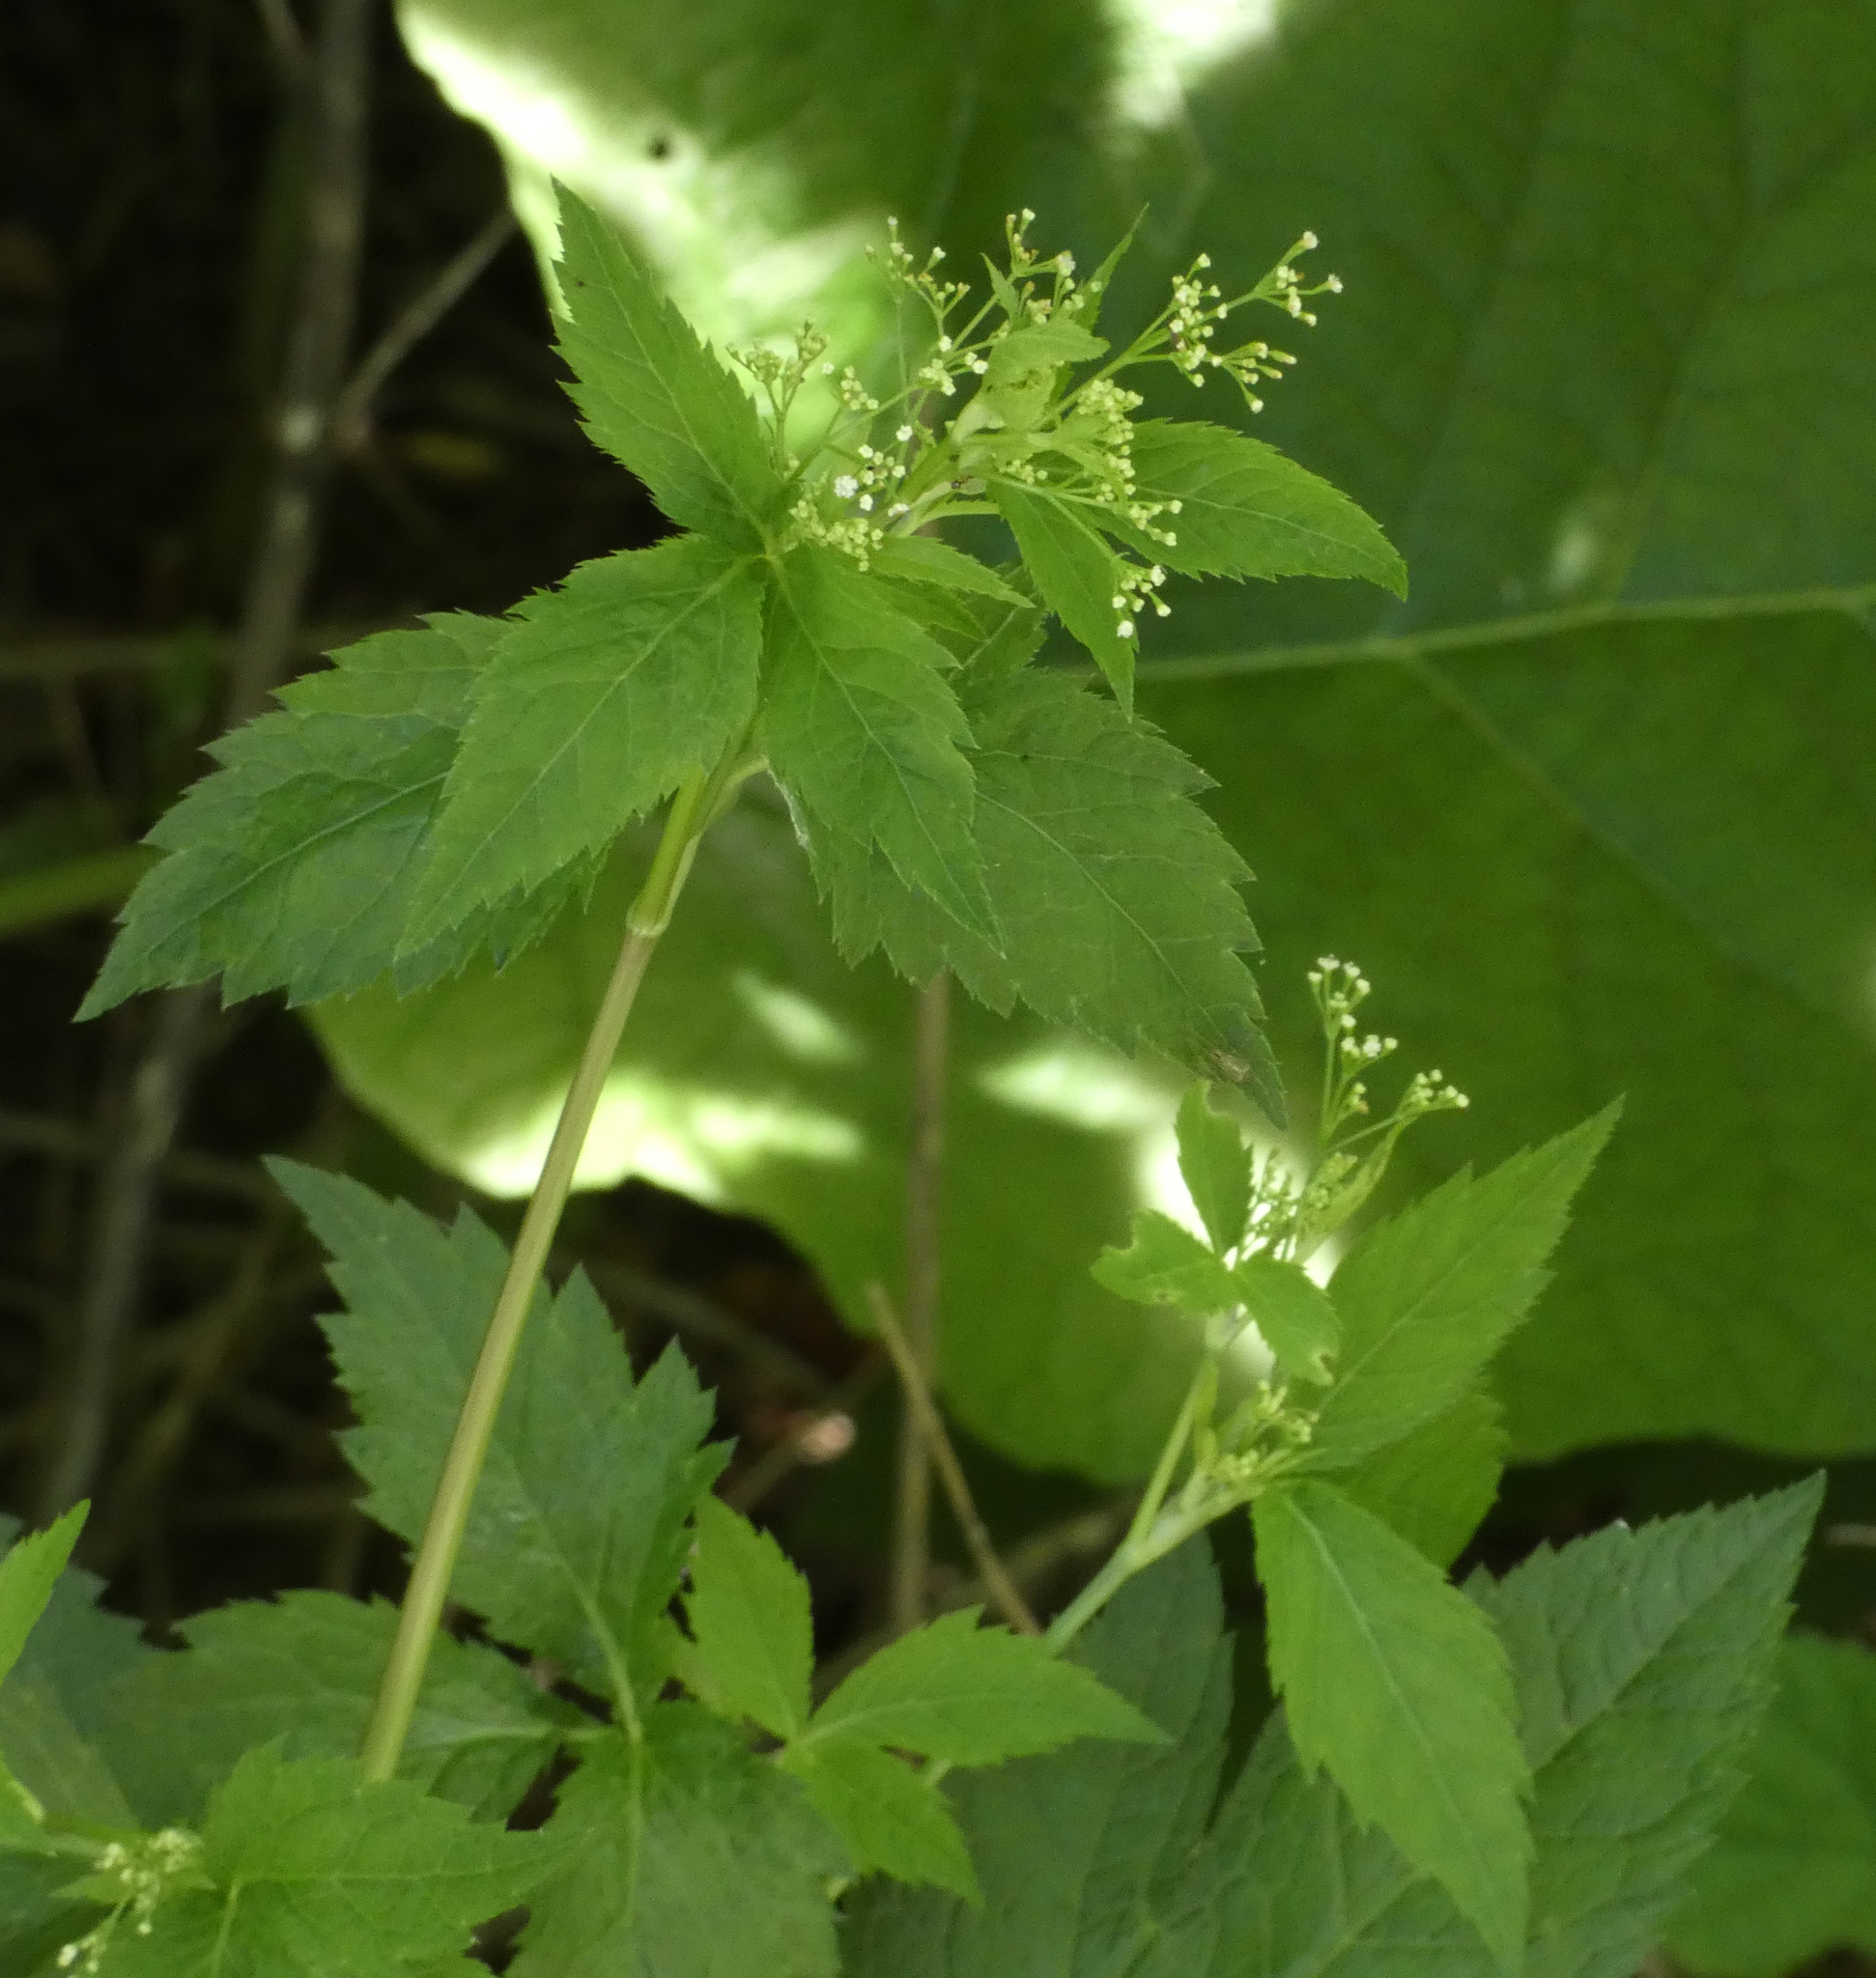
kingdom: Plantae
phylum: Tracheophyta
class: Magnoliopsida
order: Apiales
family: Apiaceae
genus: Cryptotaenia
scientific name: Cryptotaenia canadensis
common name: Honewort
